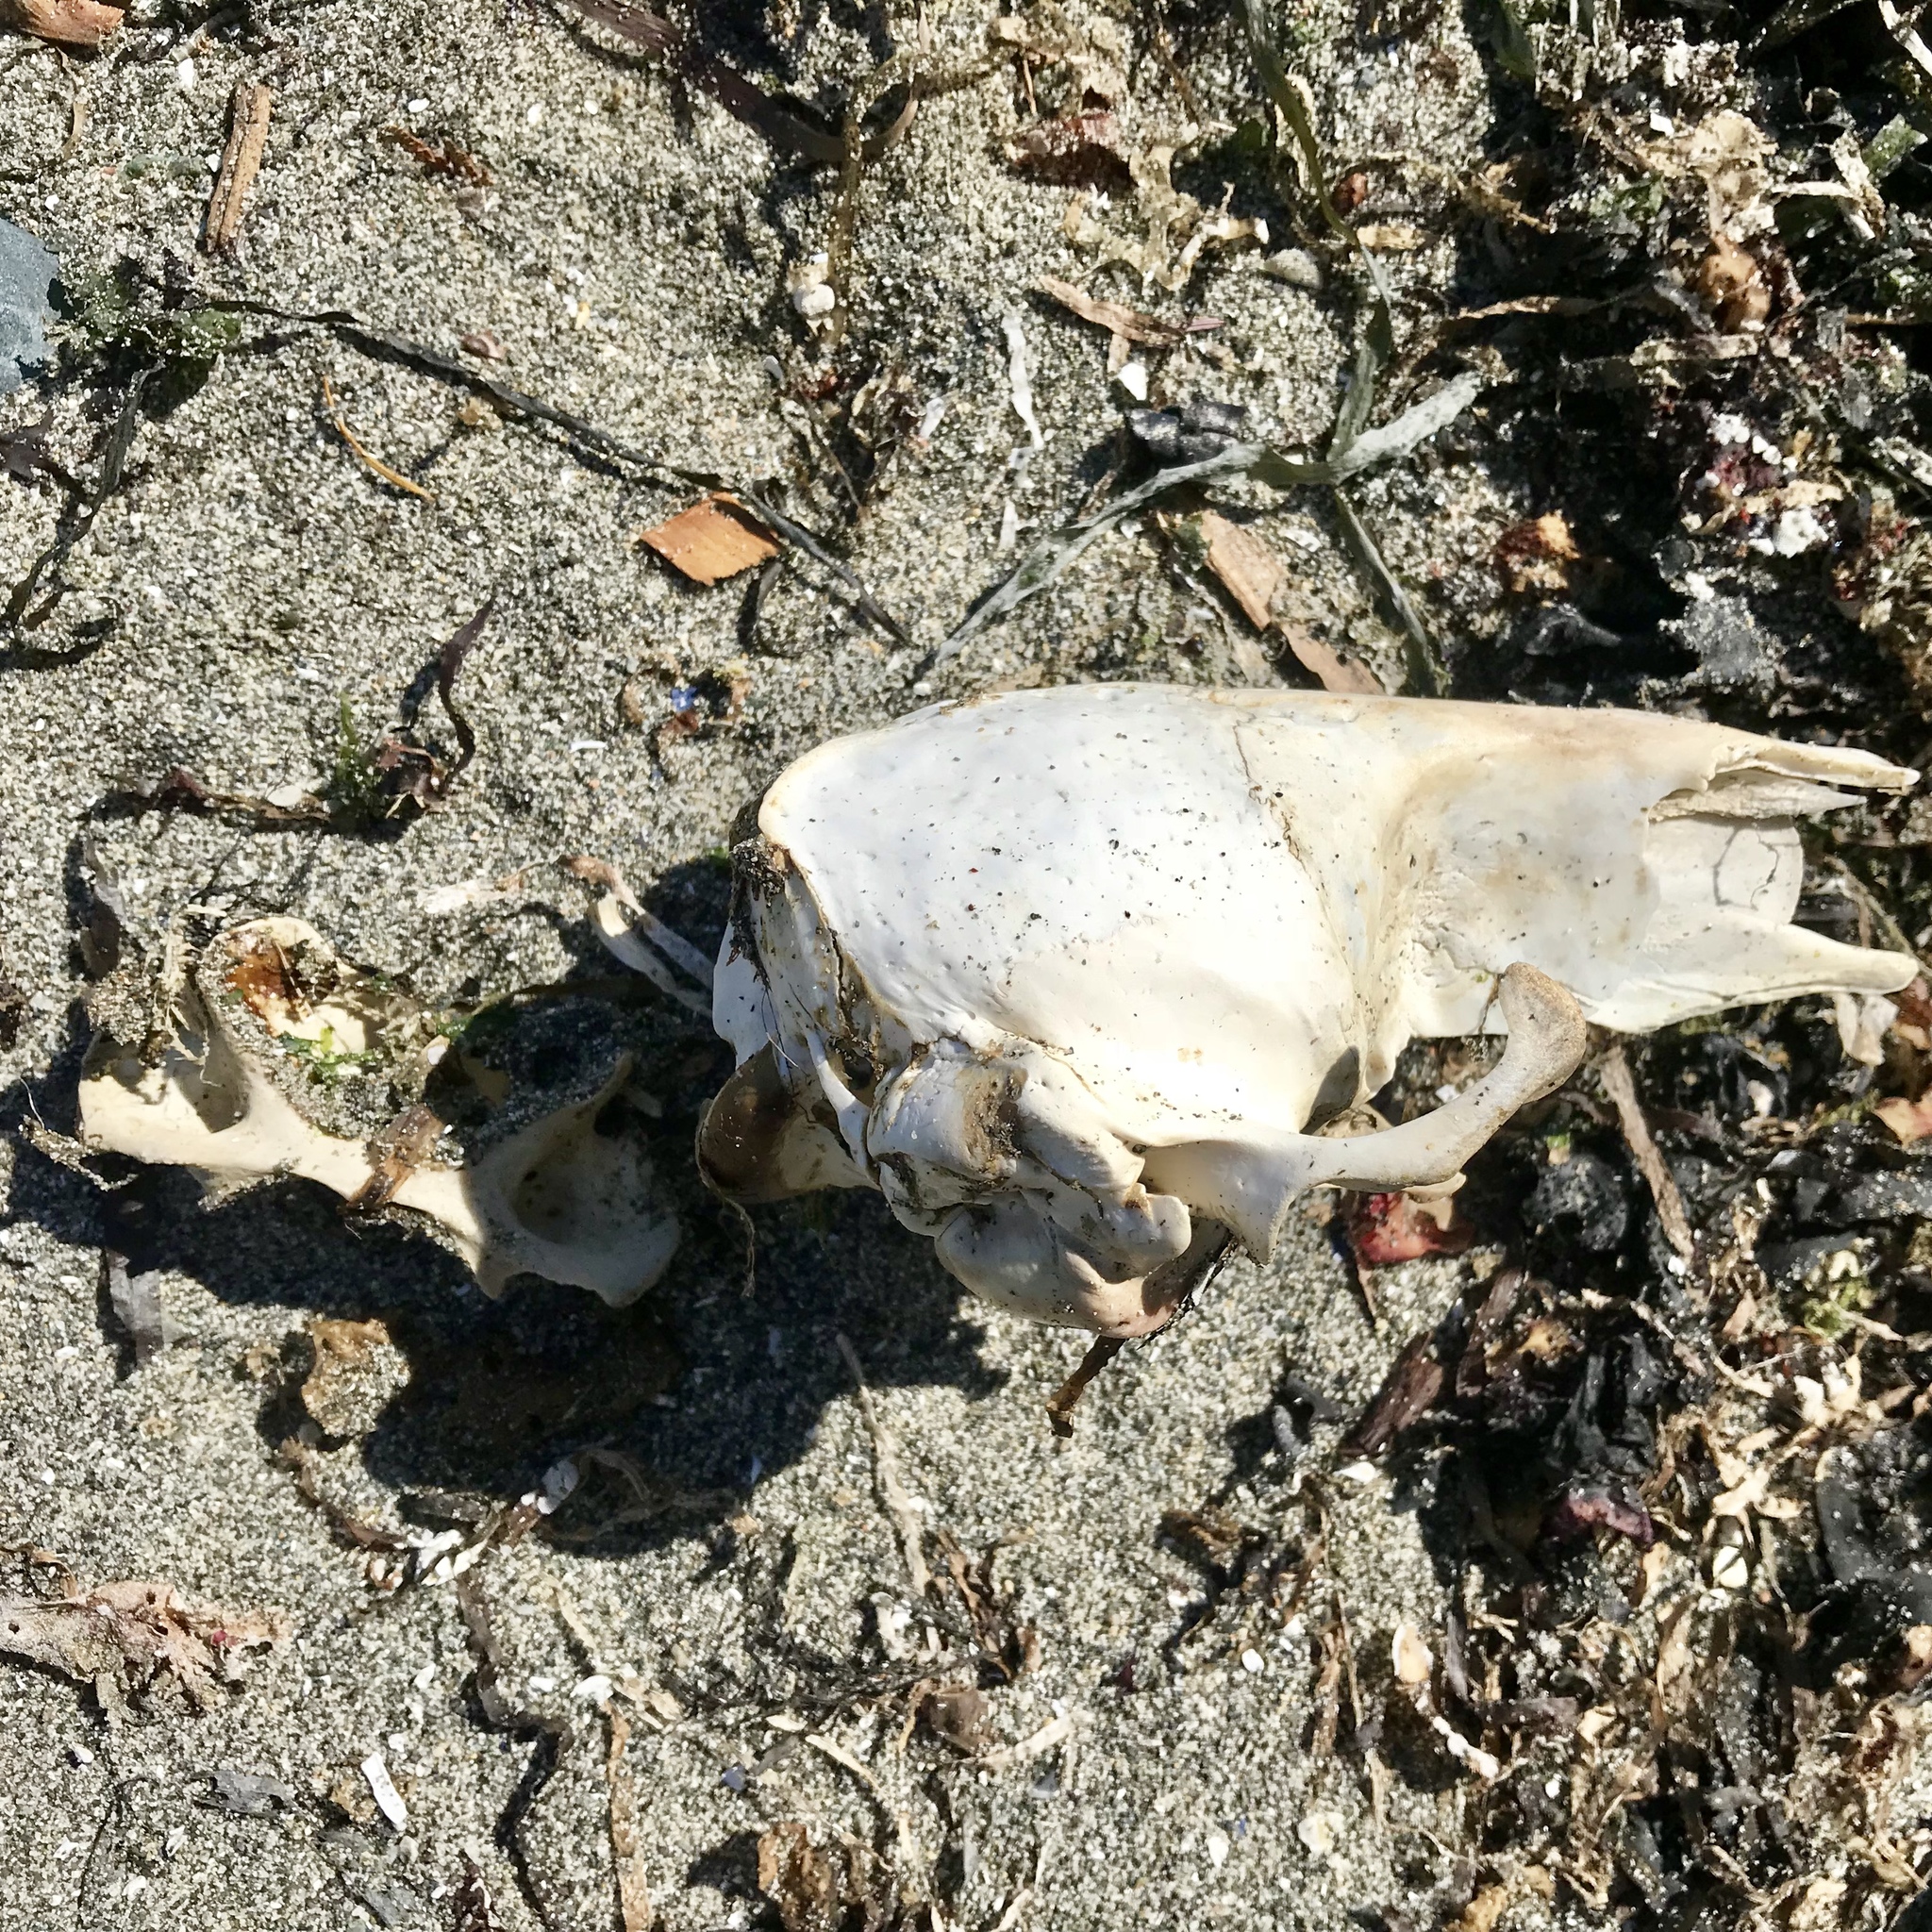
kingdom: Animalia
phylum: Chordata
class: Mammalia
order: Carnivora
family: Phocidae
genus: Phoca
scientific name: Phoca vitulina
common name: Harbor seal
